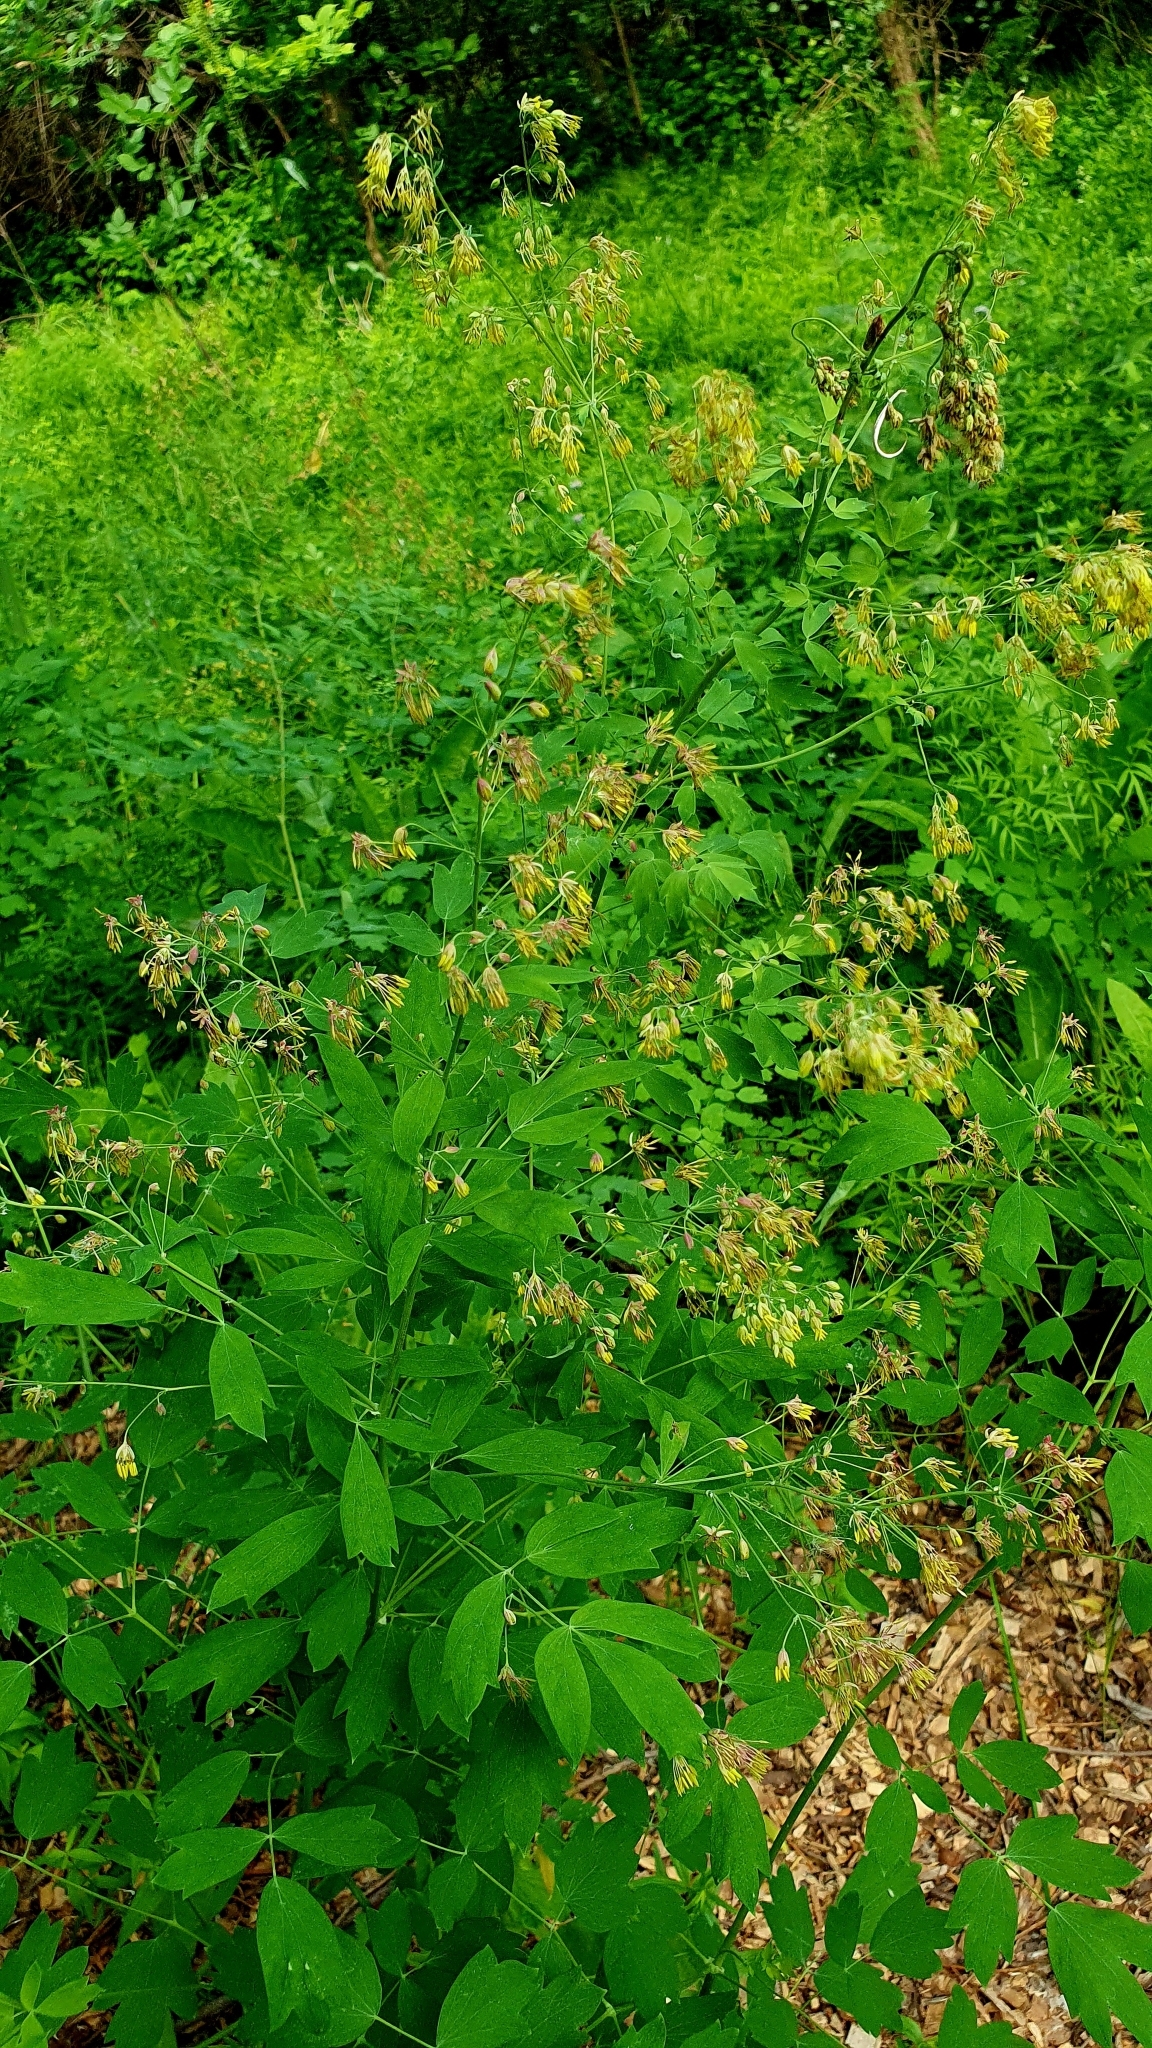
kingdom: Plantae
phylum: Tracheophyta
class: Magnoliopsida
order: Ranunculales
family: Ranunculaceae
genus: Thalictrum
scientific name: Thalictrum flavum
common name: Common meadow-rue
